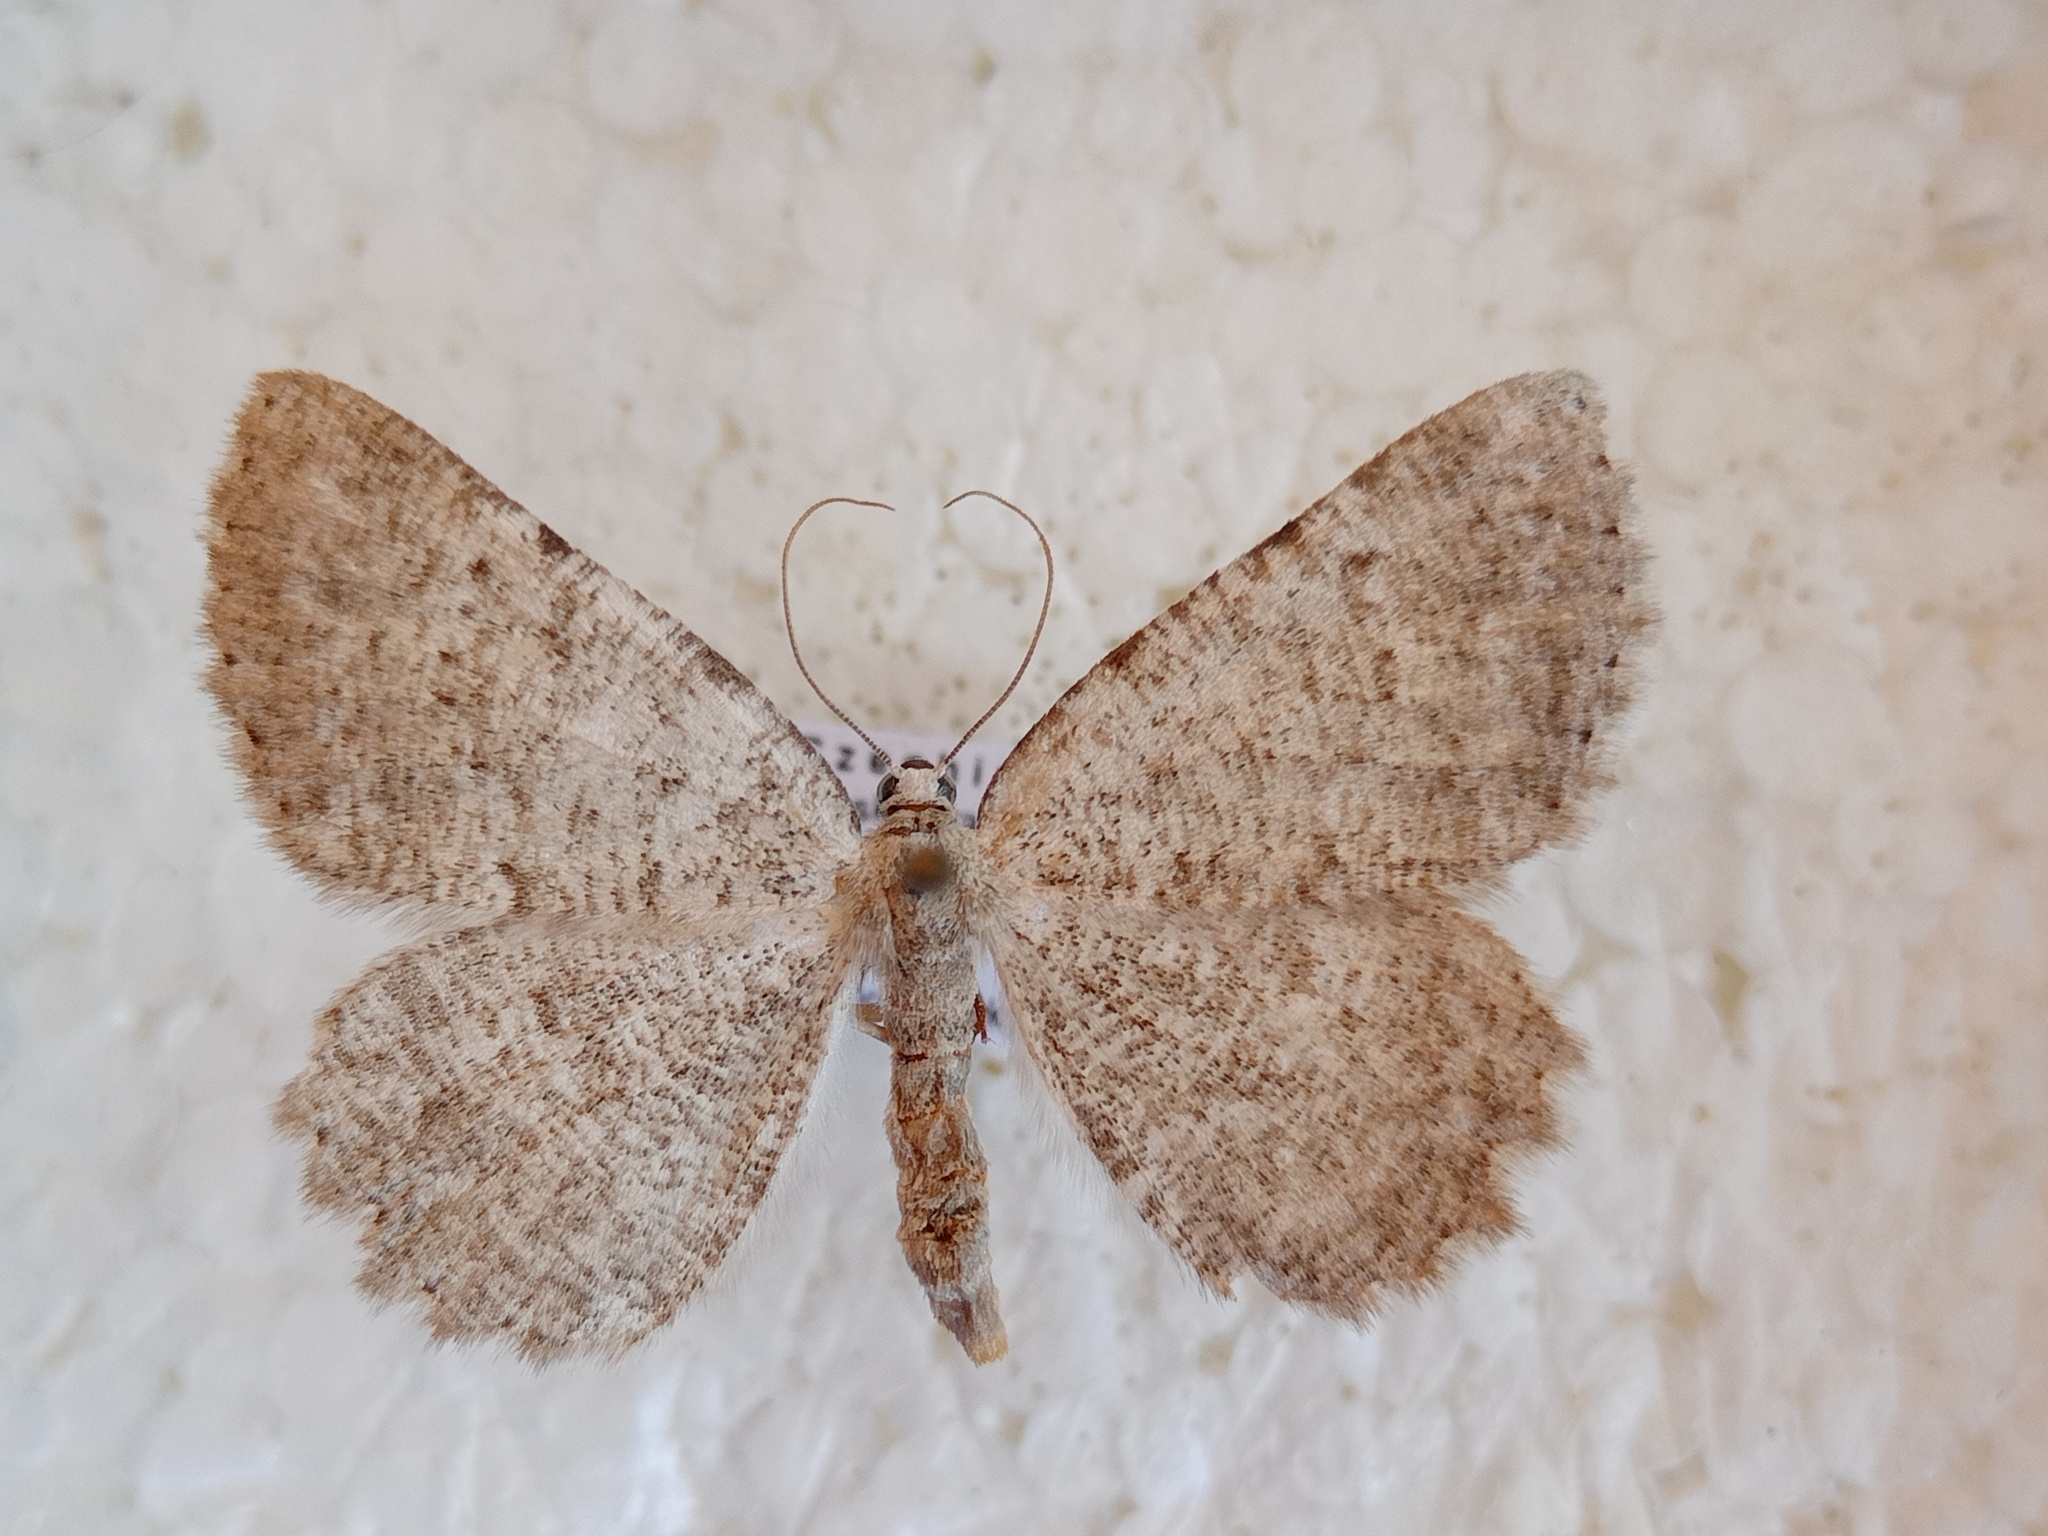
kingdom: Animalia
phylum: Arthropoda
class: Insecta
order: Lepidoptera
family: Geometridae
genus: Charissa
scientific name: Charissa pullata
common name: Limestone annulet
